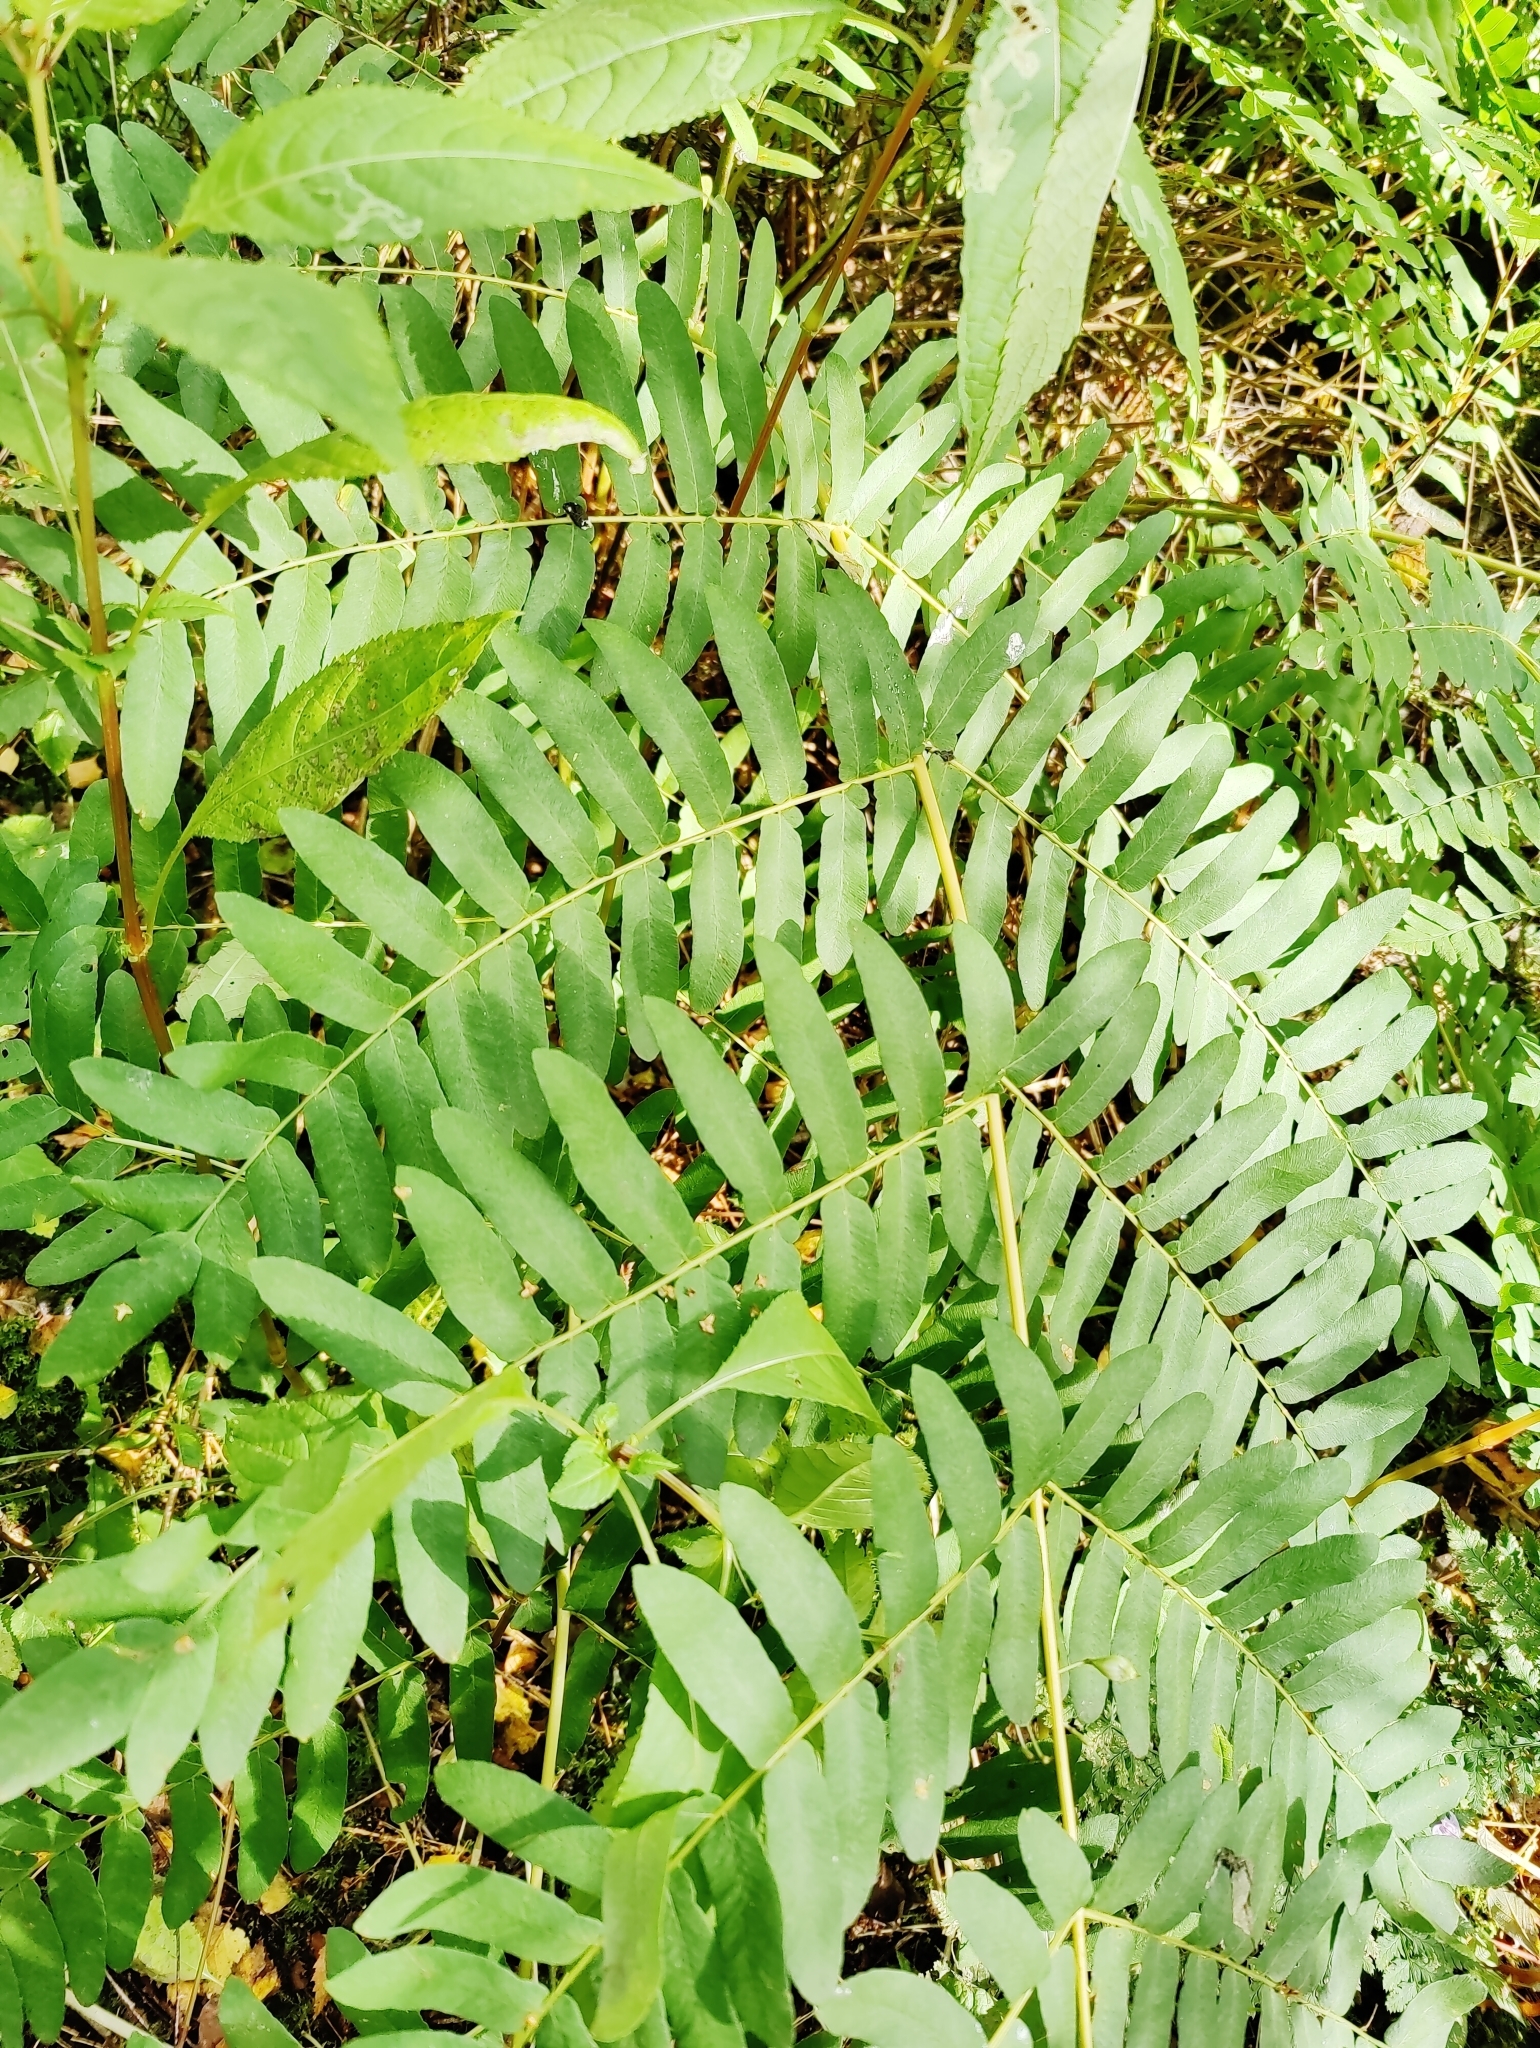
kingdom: Plantae
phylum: Tracheophyta
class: Polypodiopsida
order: Osmundales
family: Osmundaceae
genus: Osmunda
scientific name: Osmunda regalis
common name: Royal fern
